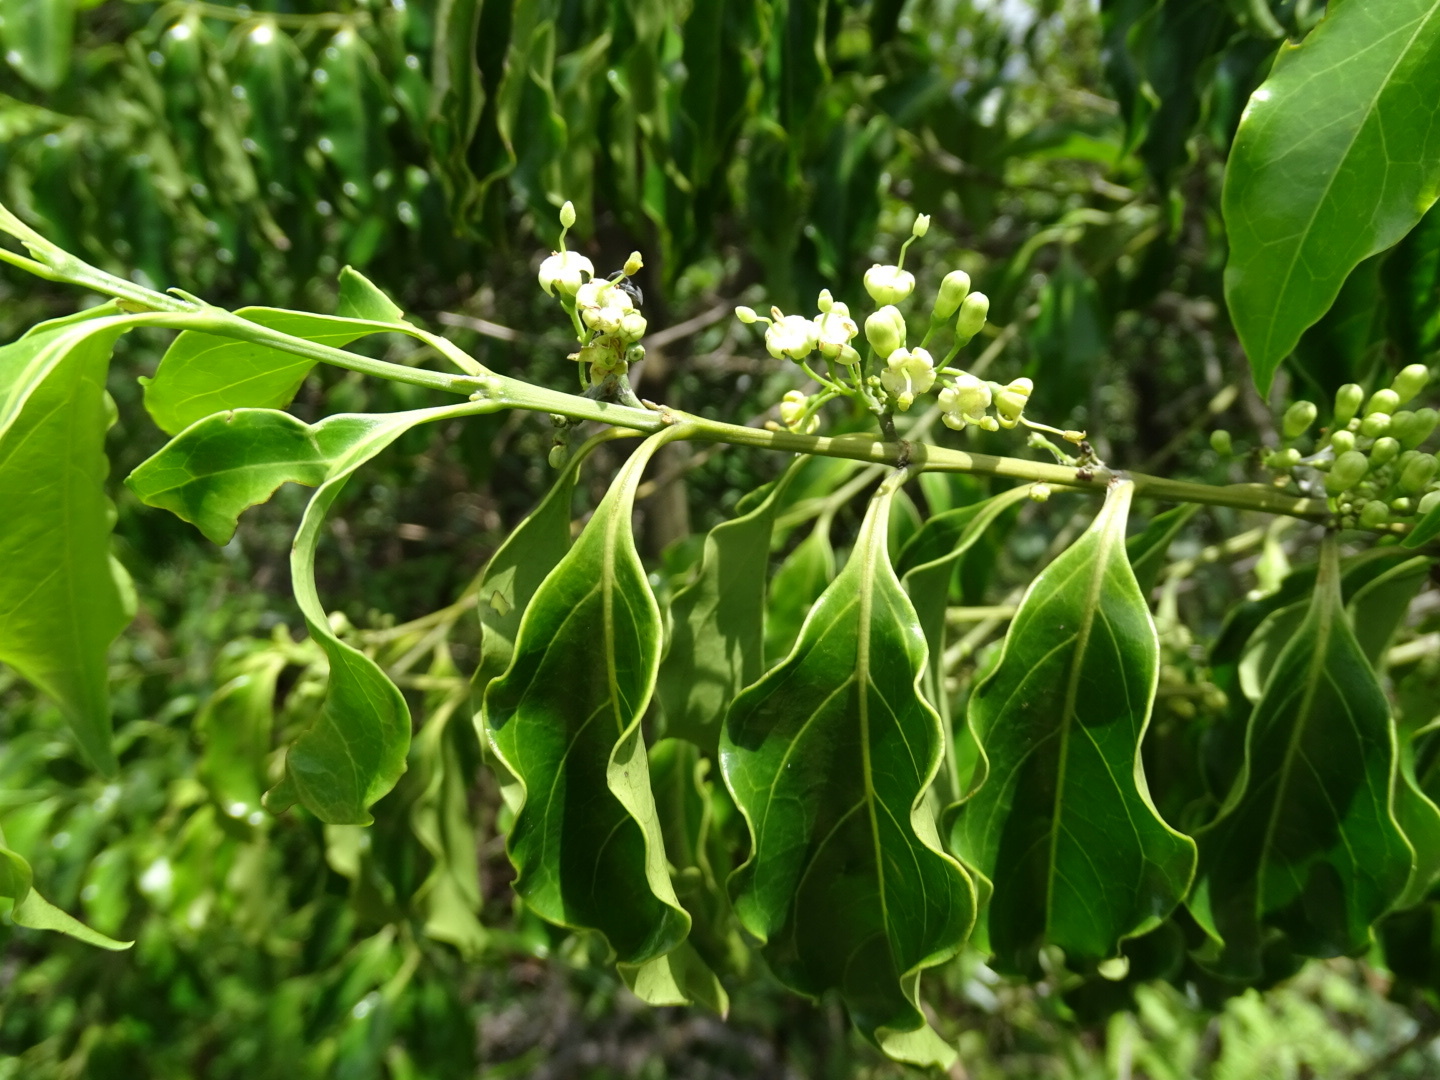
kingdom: Plantae
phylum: Tracheophyta
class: Magnoliopsida
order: Gentianales
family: Rubiaceae
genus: Psydrax
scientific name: Psydrax dicoccos
